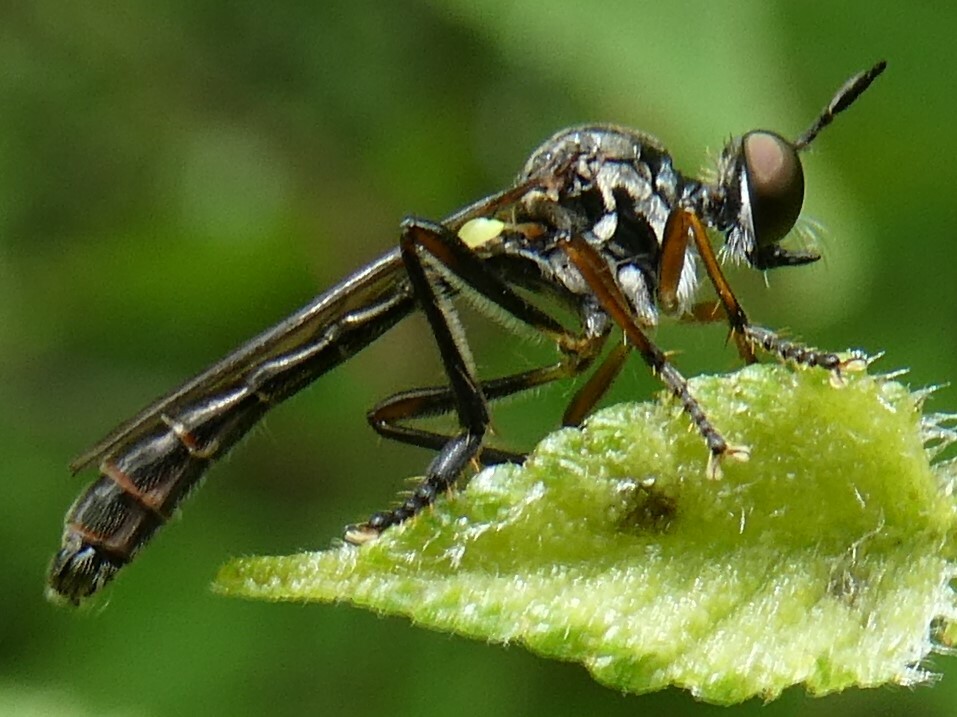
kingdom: Animalia
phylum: Arthropoda
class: Insecta
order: Diptera
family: Asilidae
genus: Dioctria
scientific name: Dioctria hyalipennis
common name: Stripe-legged robberfly
